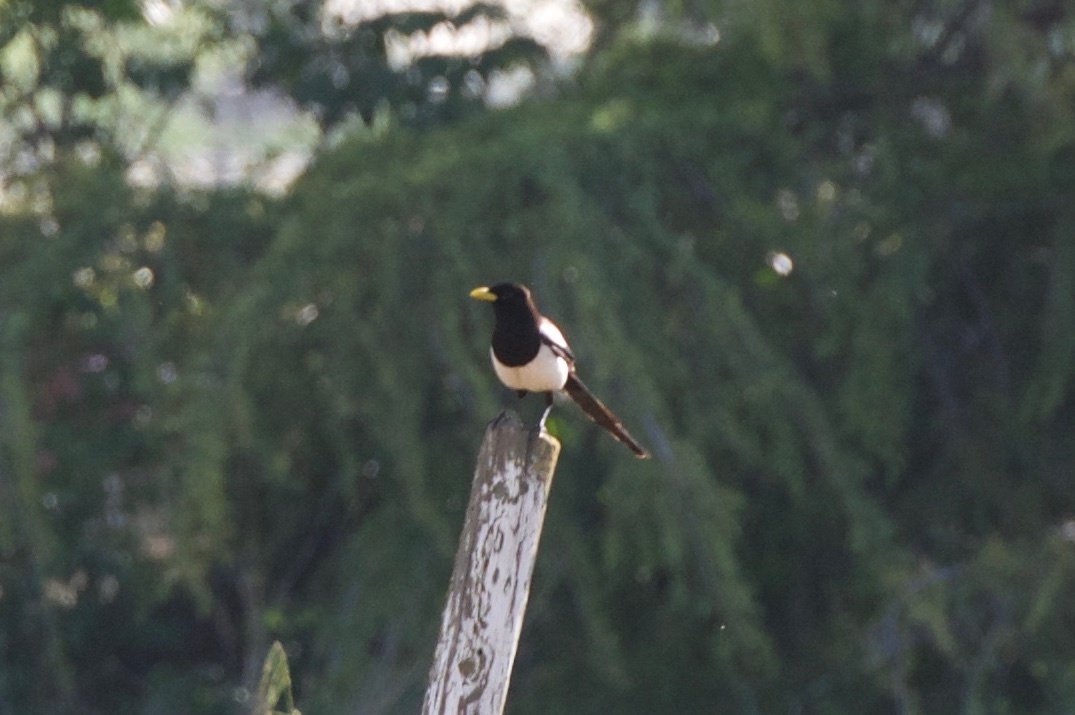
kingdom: Animalia
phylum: Chordata
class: Aves
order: Passeriformes
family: Corvidae
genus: Pica
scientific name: Pica nuttalli
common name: Yellow-billed magpie
